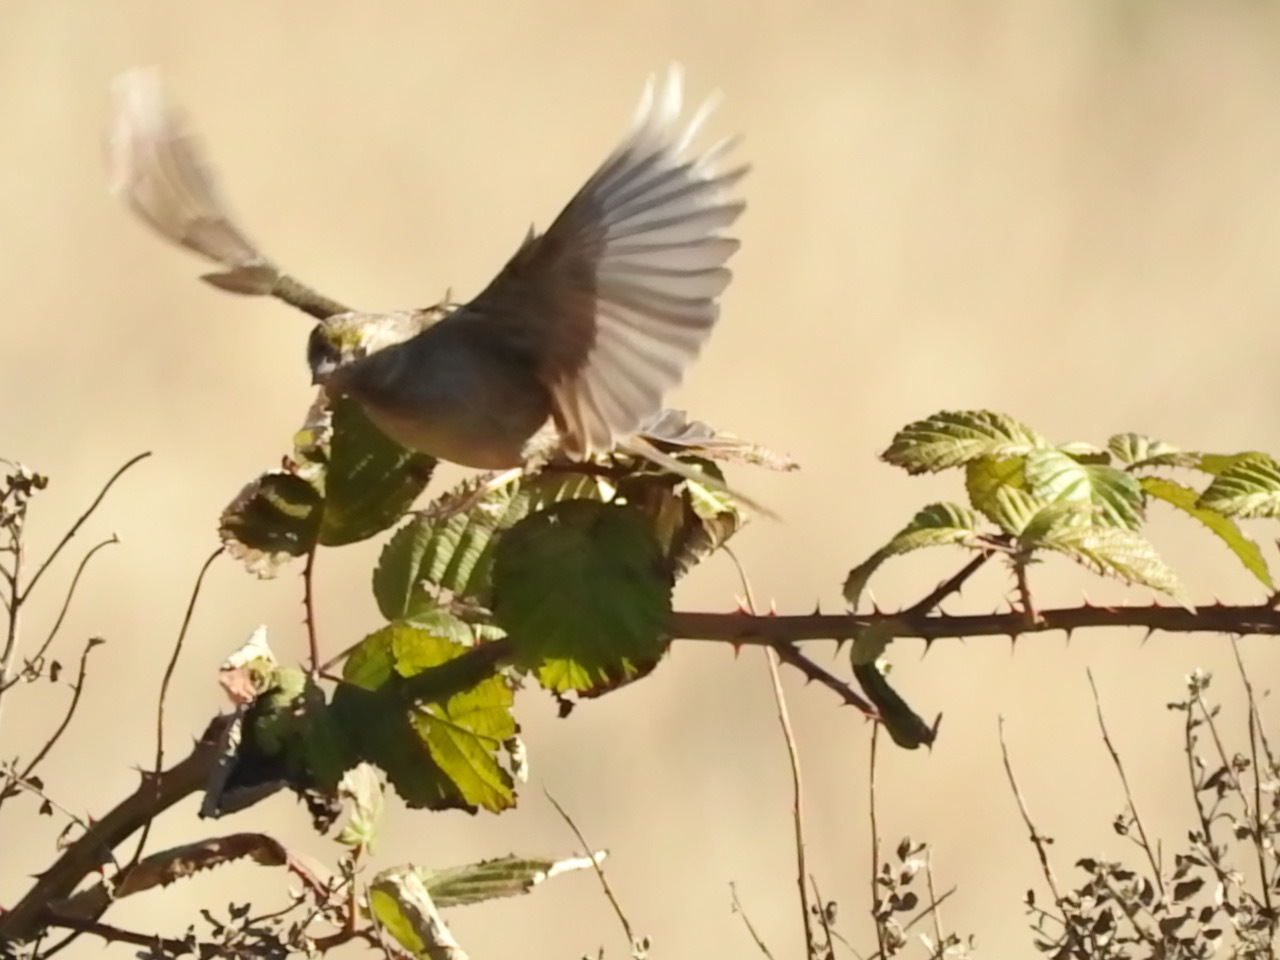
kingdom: Animalia
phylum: Chordata
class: Aves
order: Passeriformes
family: Passerellidae
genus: Zonotrichia
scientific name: Zonotrichia atricapilla
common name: Golden-crowned sparrow
